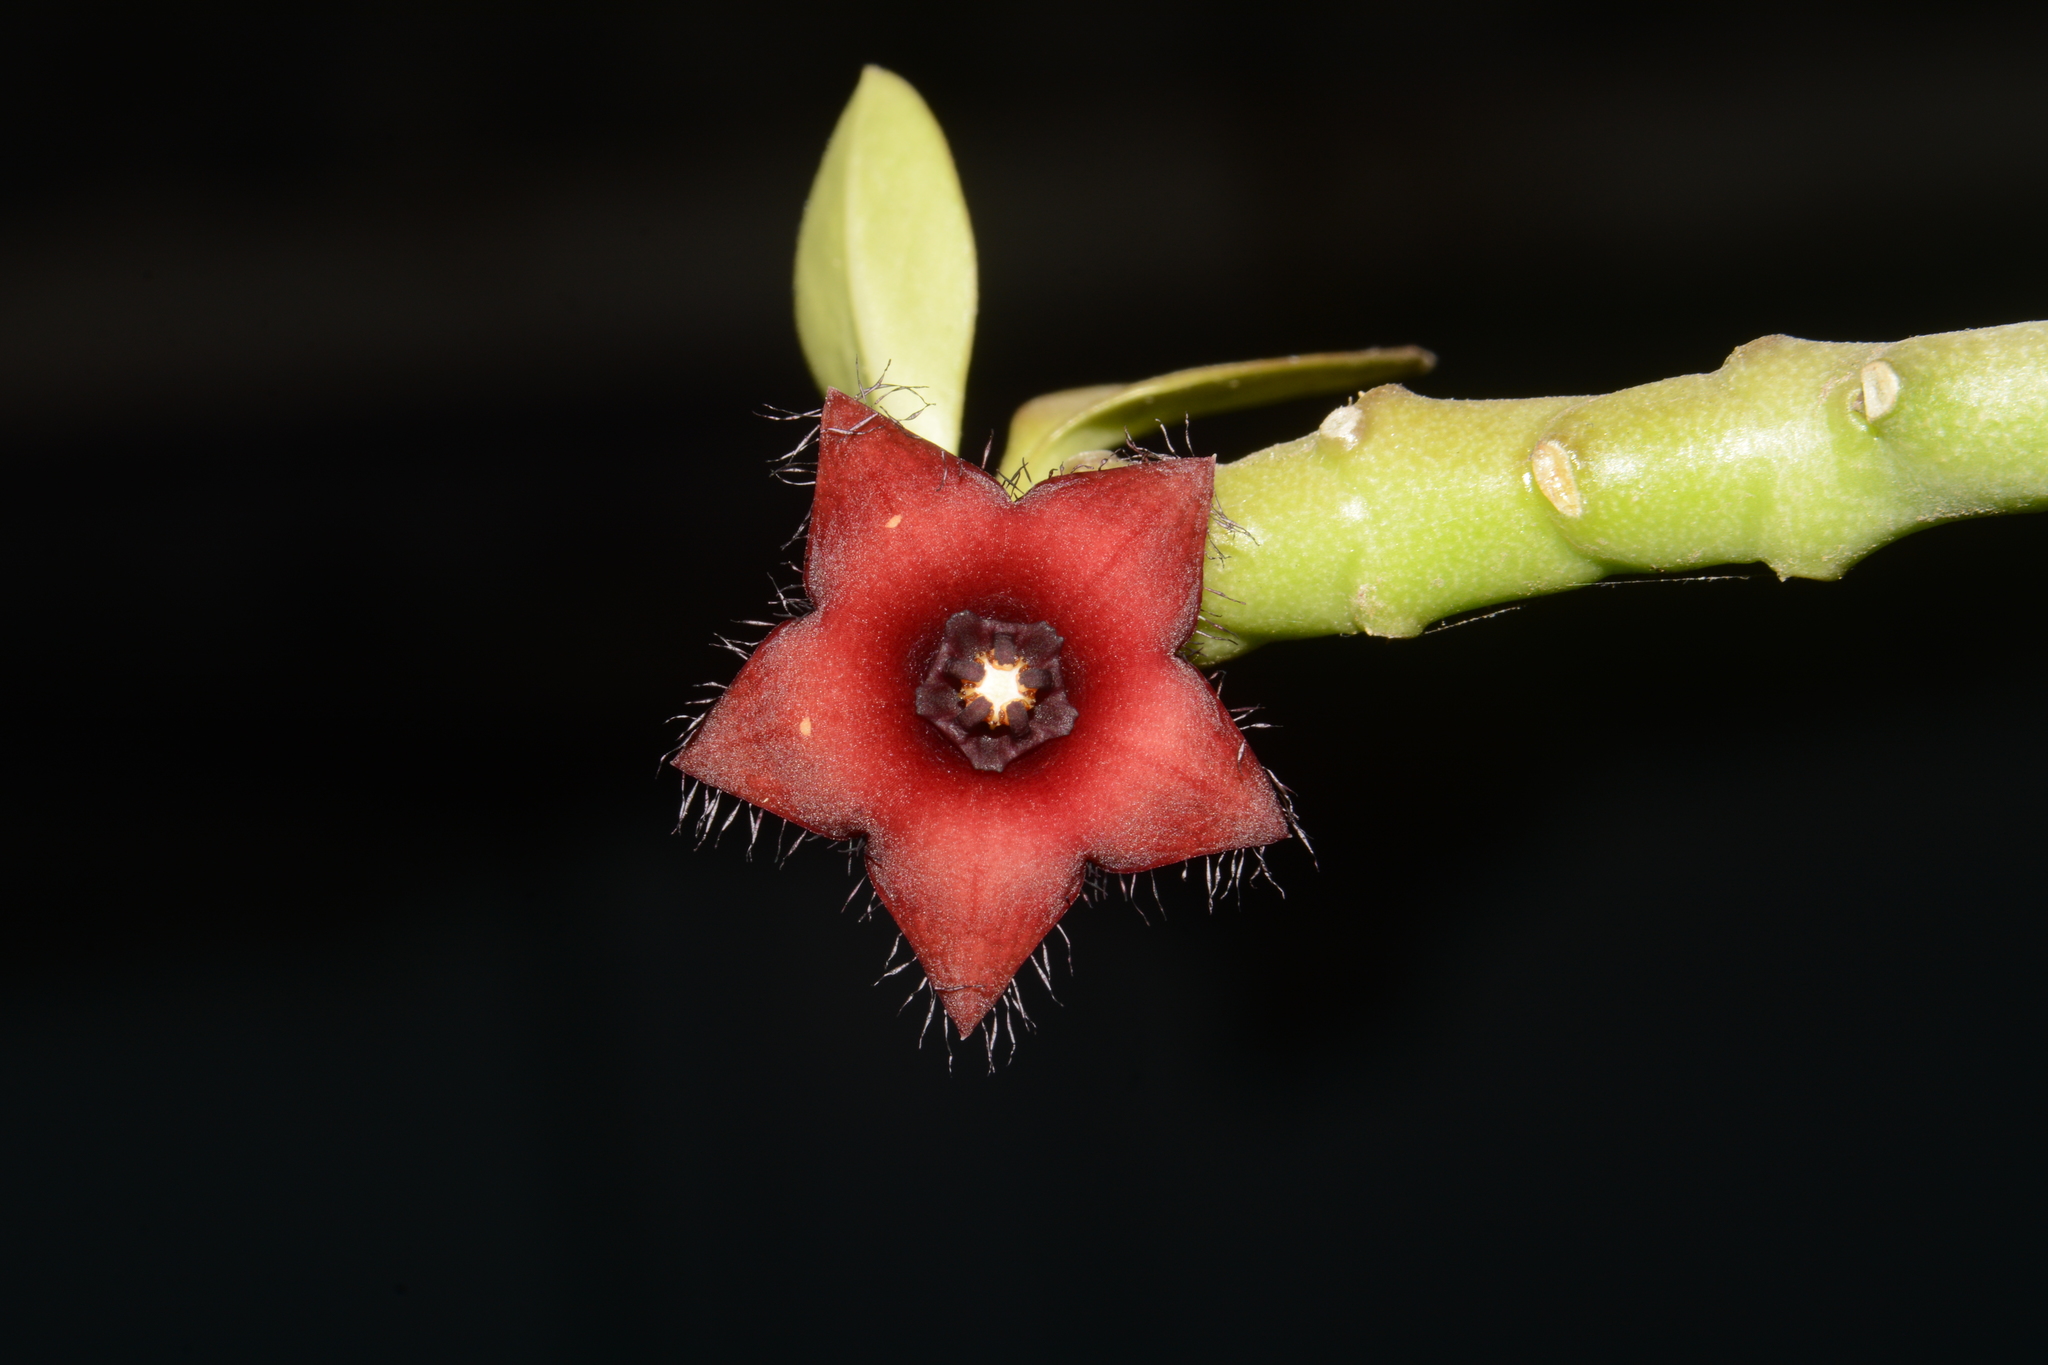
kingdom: Plantae
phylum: Tracheophyta
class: Magnoliopsida
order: Gentianales
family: Apocynaceae
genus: Ceropegia
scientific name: Ceropegia frerei
